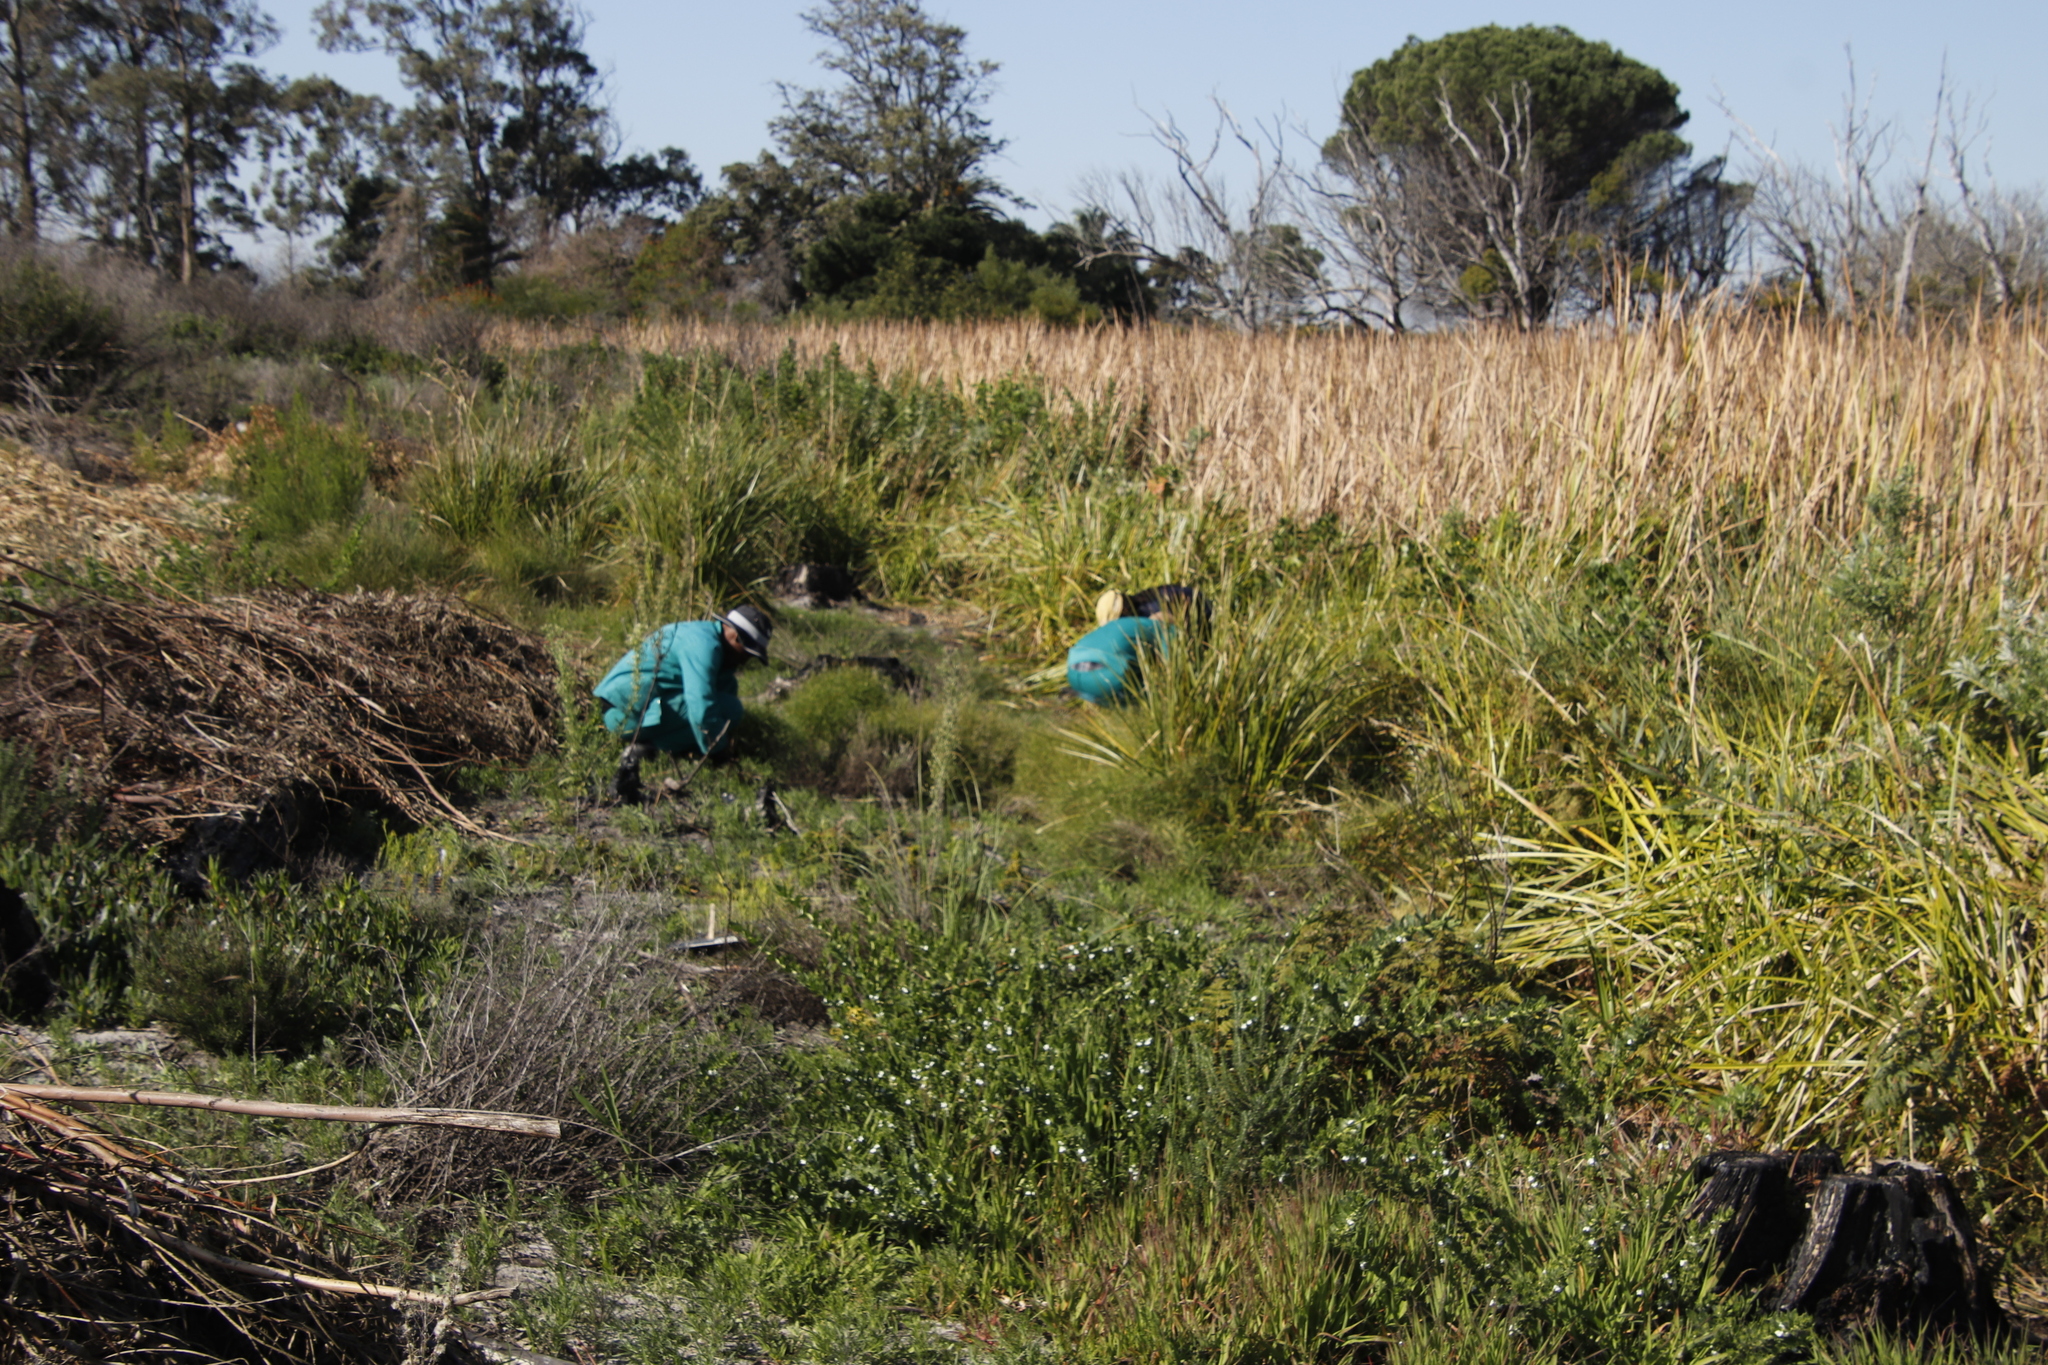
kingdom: Plantae
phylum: Tracheophyta
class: Magnoliopsida
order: Lamiales
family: Scrophulariaceae
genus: Oftia
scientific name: Oftia africana
